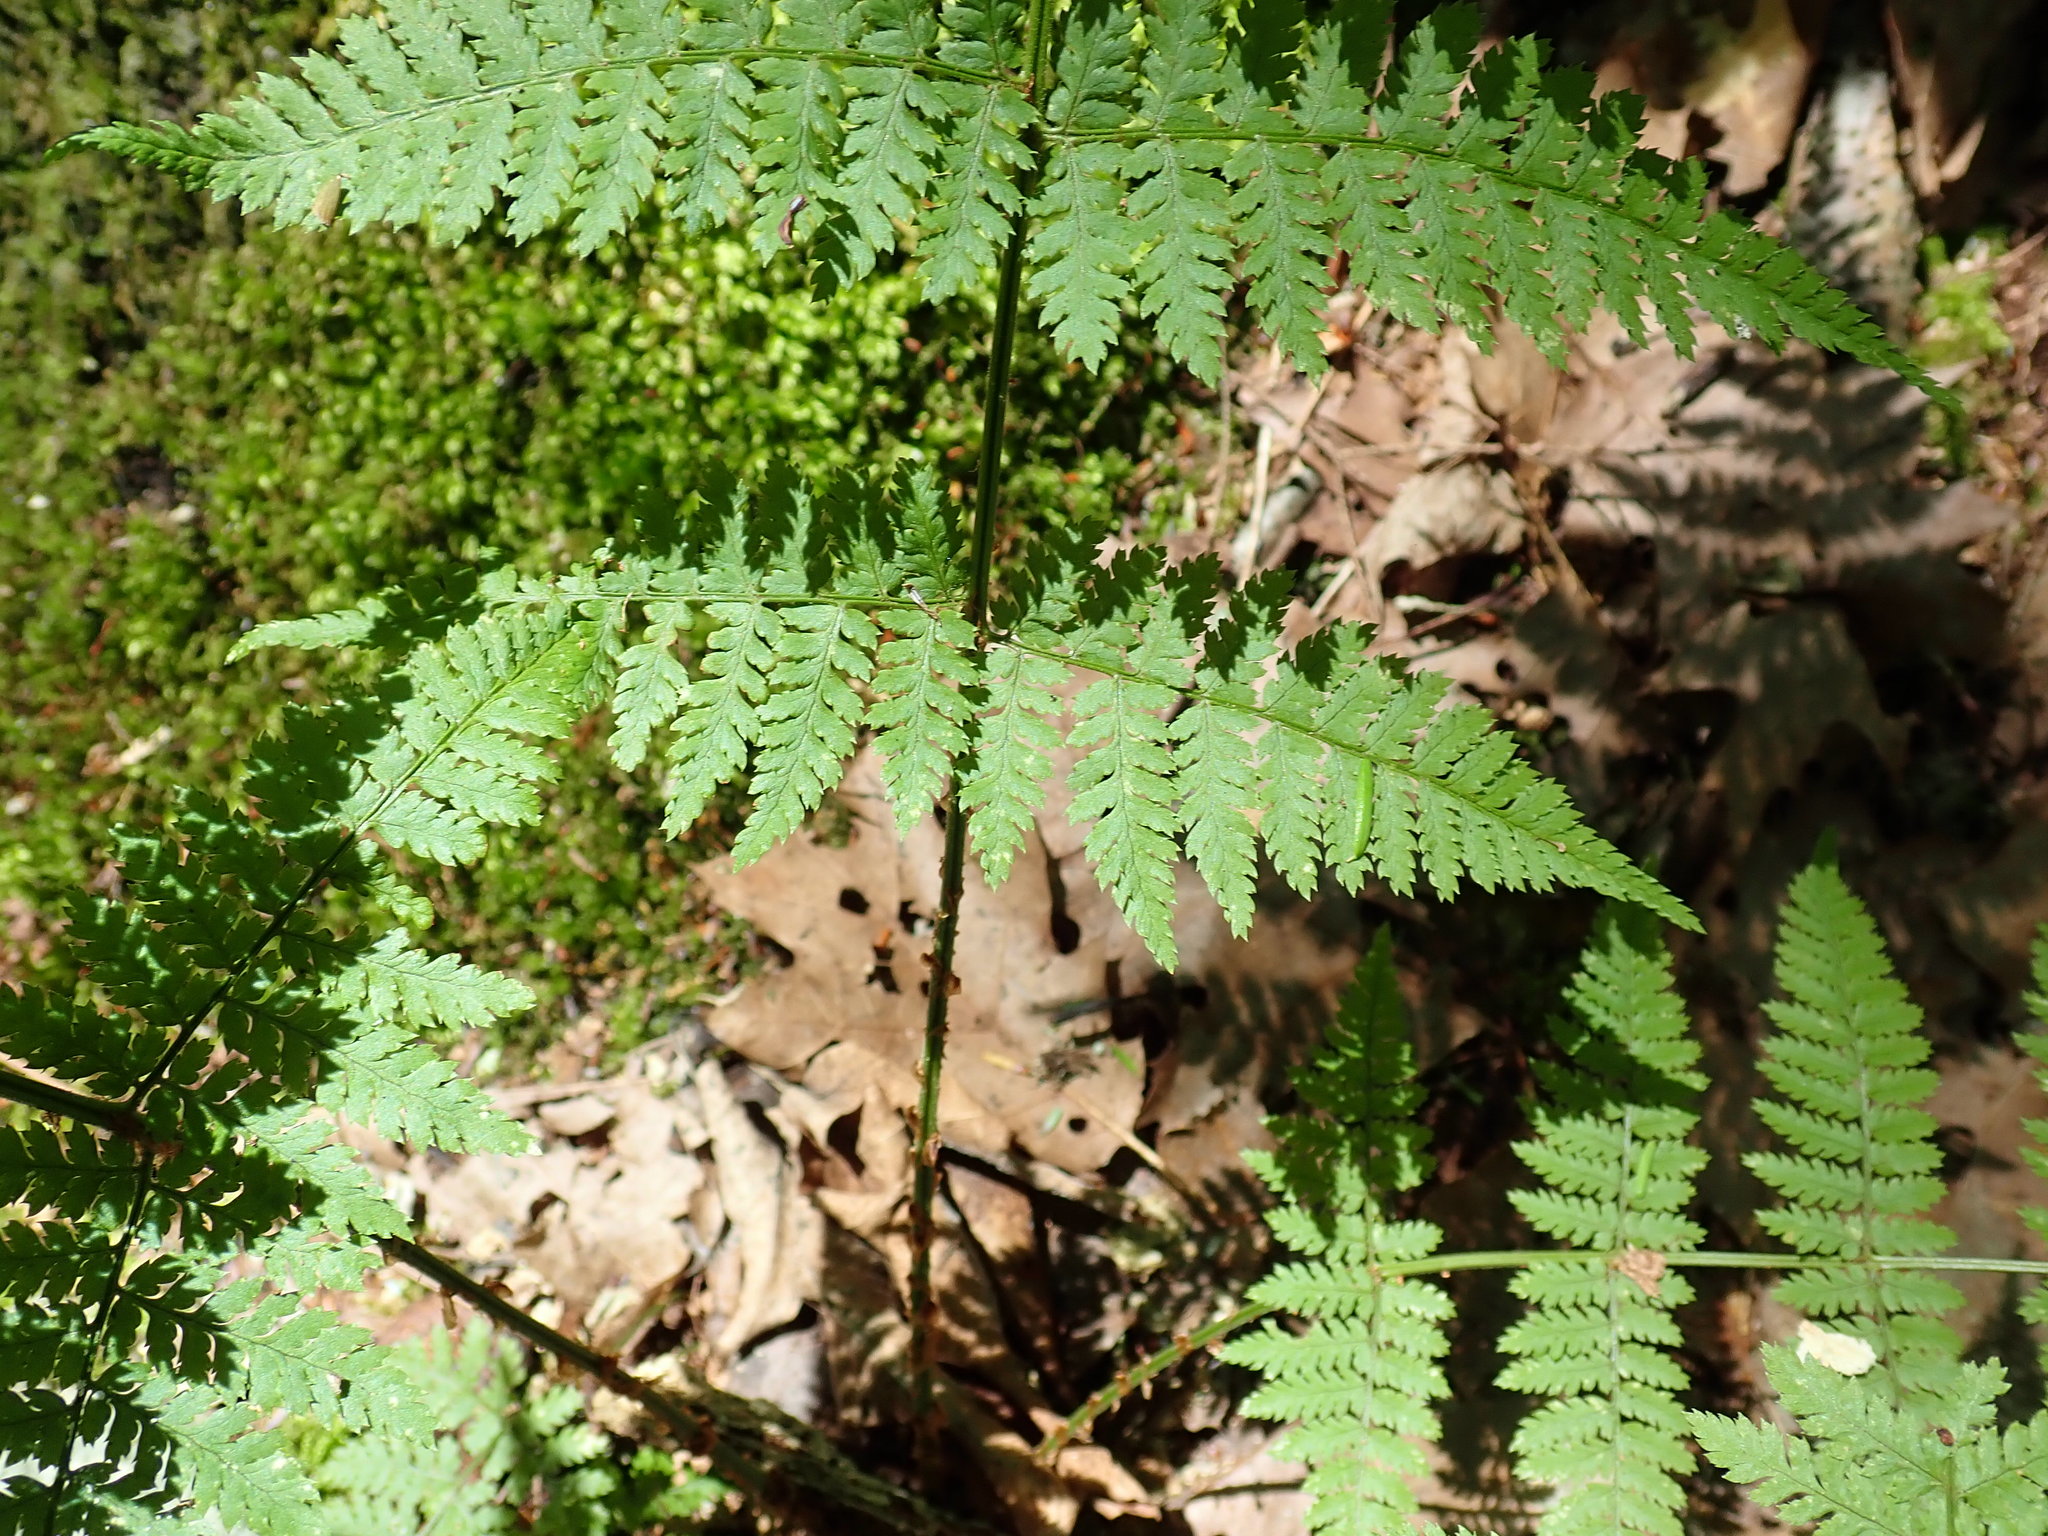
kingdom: Plantae
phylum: Tracheophyta
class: Polypodiopsida
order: Polypodiales
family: Dryopteridaceae
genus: Dryopteris
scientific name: Dryopteris intermedia
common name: Evergreen wood fern
